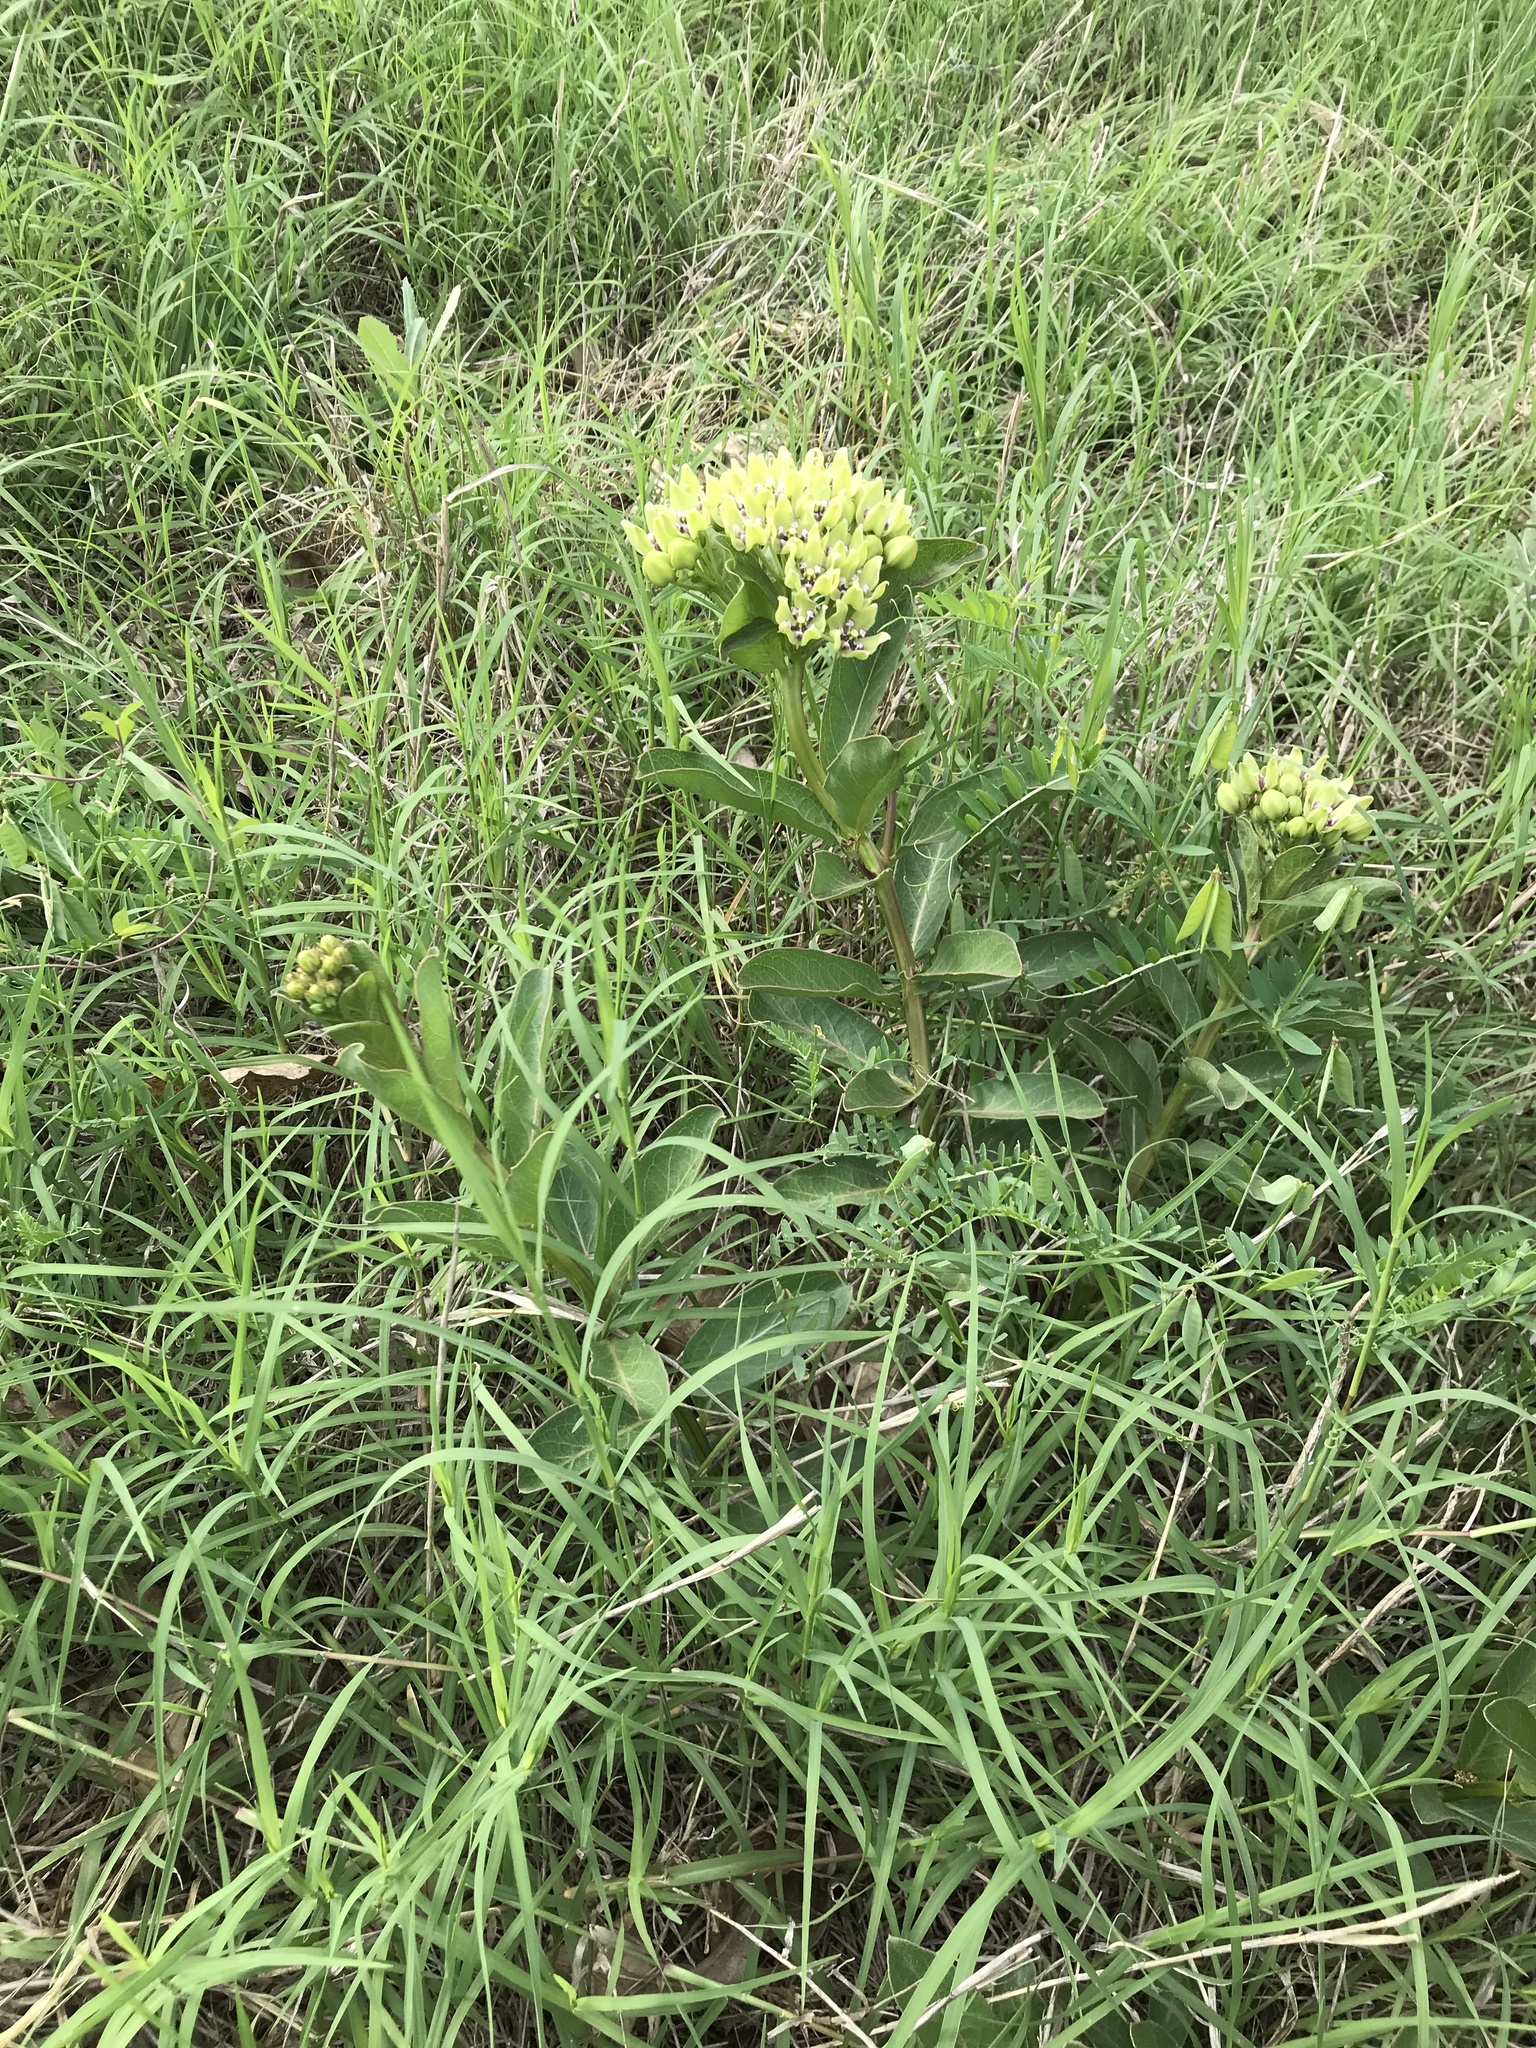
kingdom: Plantae
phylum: Tracheophyta
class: Magnoliopsida
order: Gentianales
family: Apocynaceae
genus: Asclepias
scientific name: Asclepias viridis
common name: Antelope-horns
